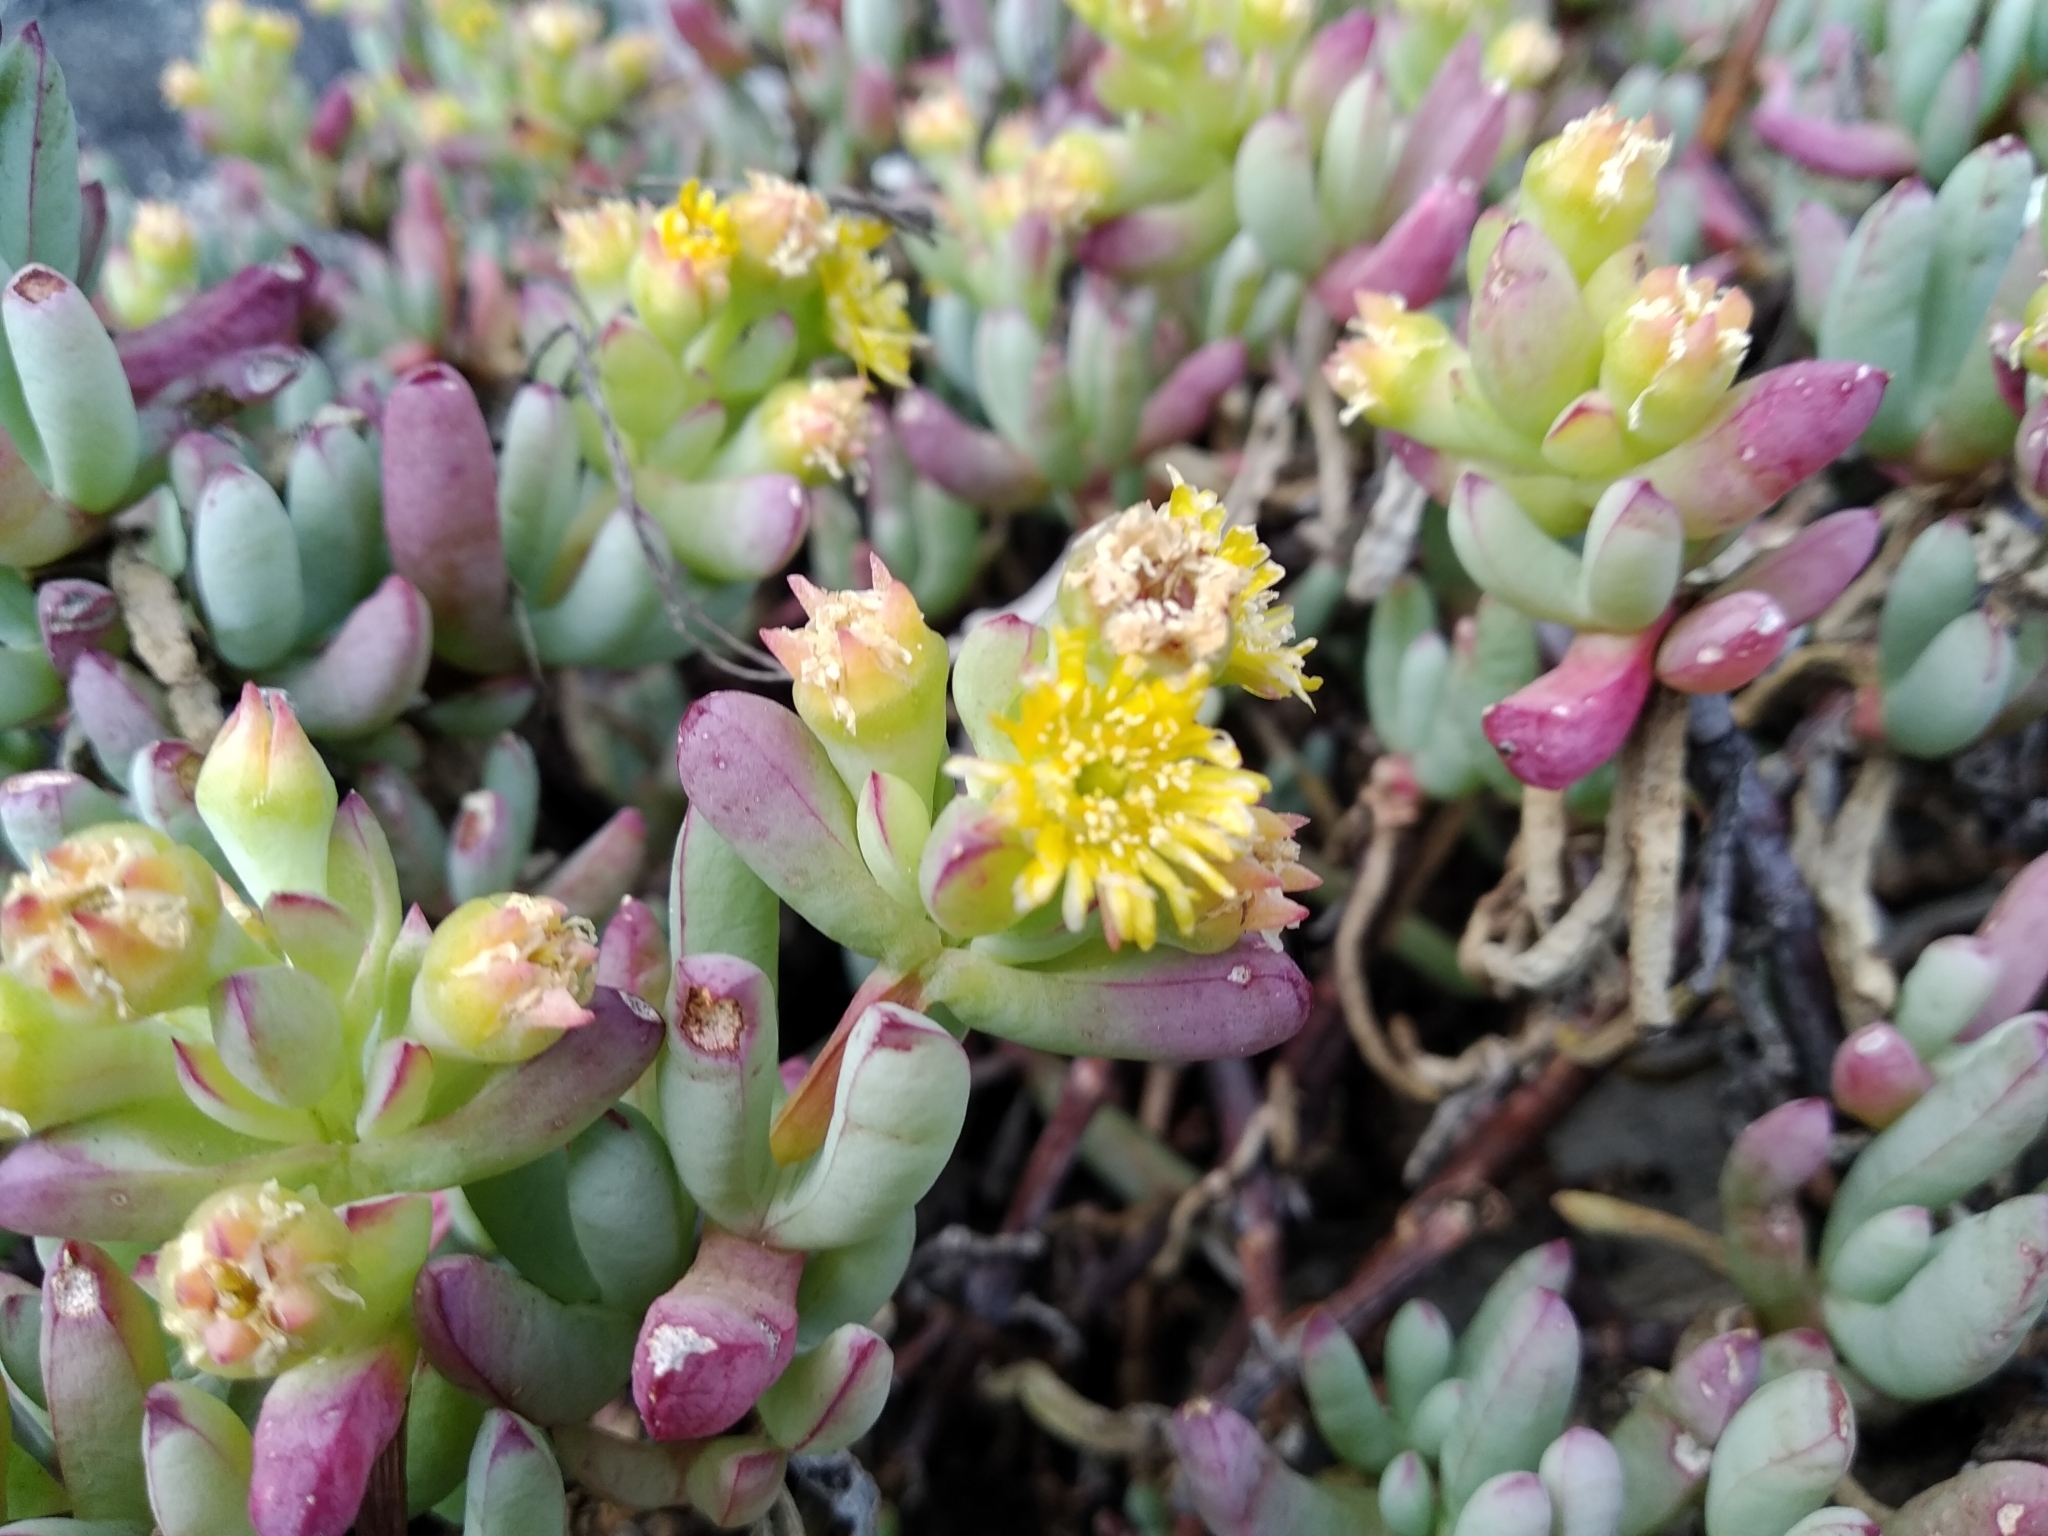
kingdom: Plantae
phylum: Tracheophyta
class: Magnoliopsida
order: Caryophyllales
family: Aizoaceae
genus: Scopelogena
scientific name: Scopelogena verruculata
